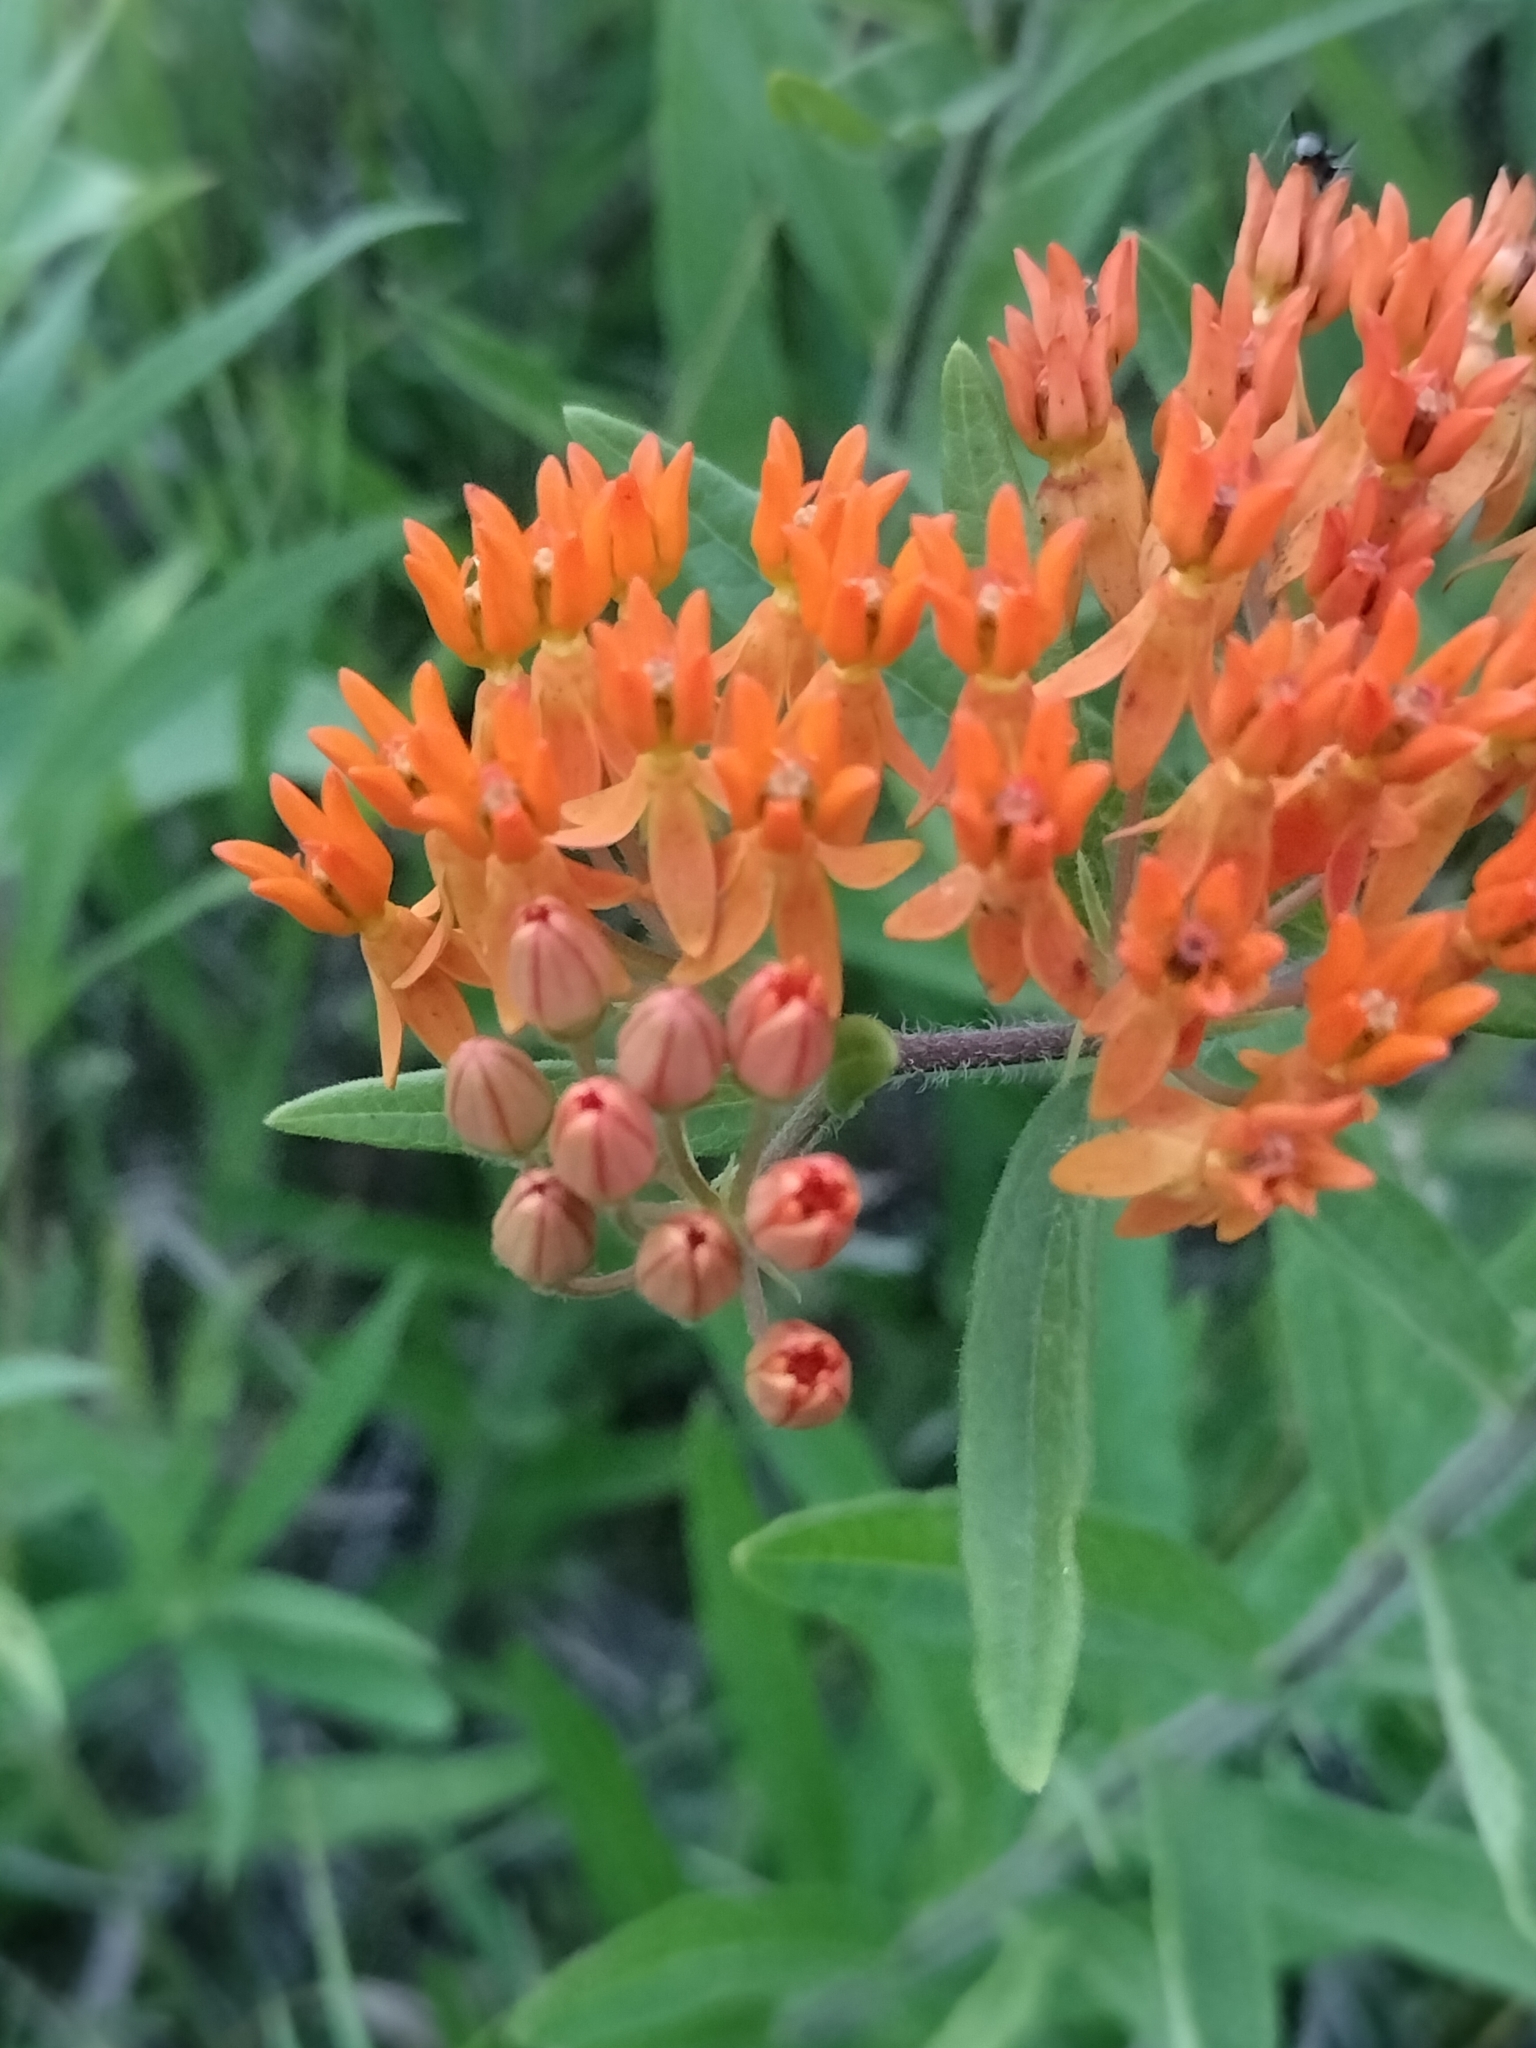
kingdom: Plantae
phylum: Tracheophyta
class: Magnoliopsida
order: Gentianales
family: Apocynaceae
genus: Asclepias
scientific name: Asclepias tuberosa
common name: Butterfly milkweed
